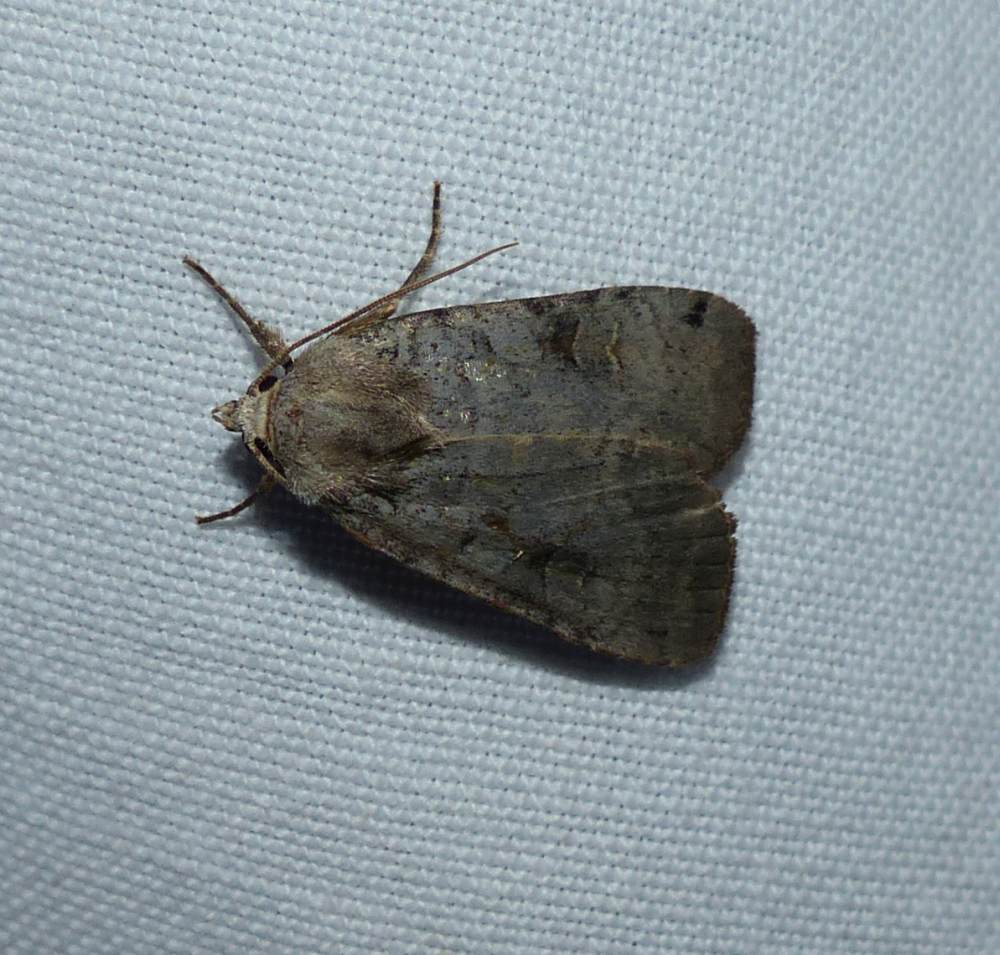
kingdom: Animalia
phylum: Arthropoda
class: Insecta
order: Lepidoptera
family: Noctuidae
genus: Xestia
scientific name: Xestia smithii
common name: Smith's dart
